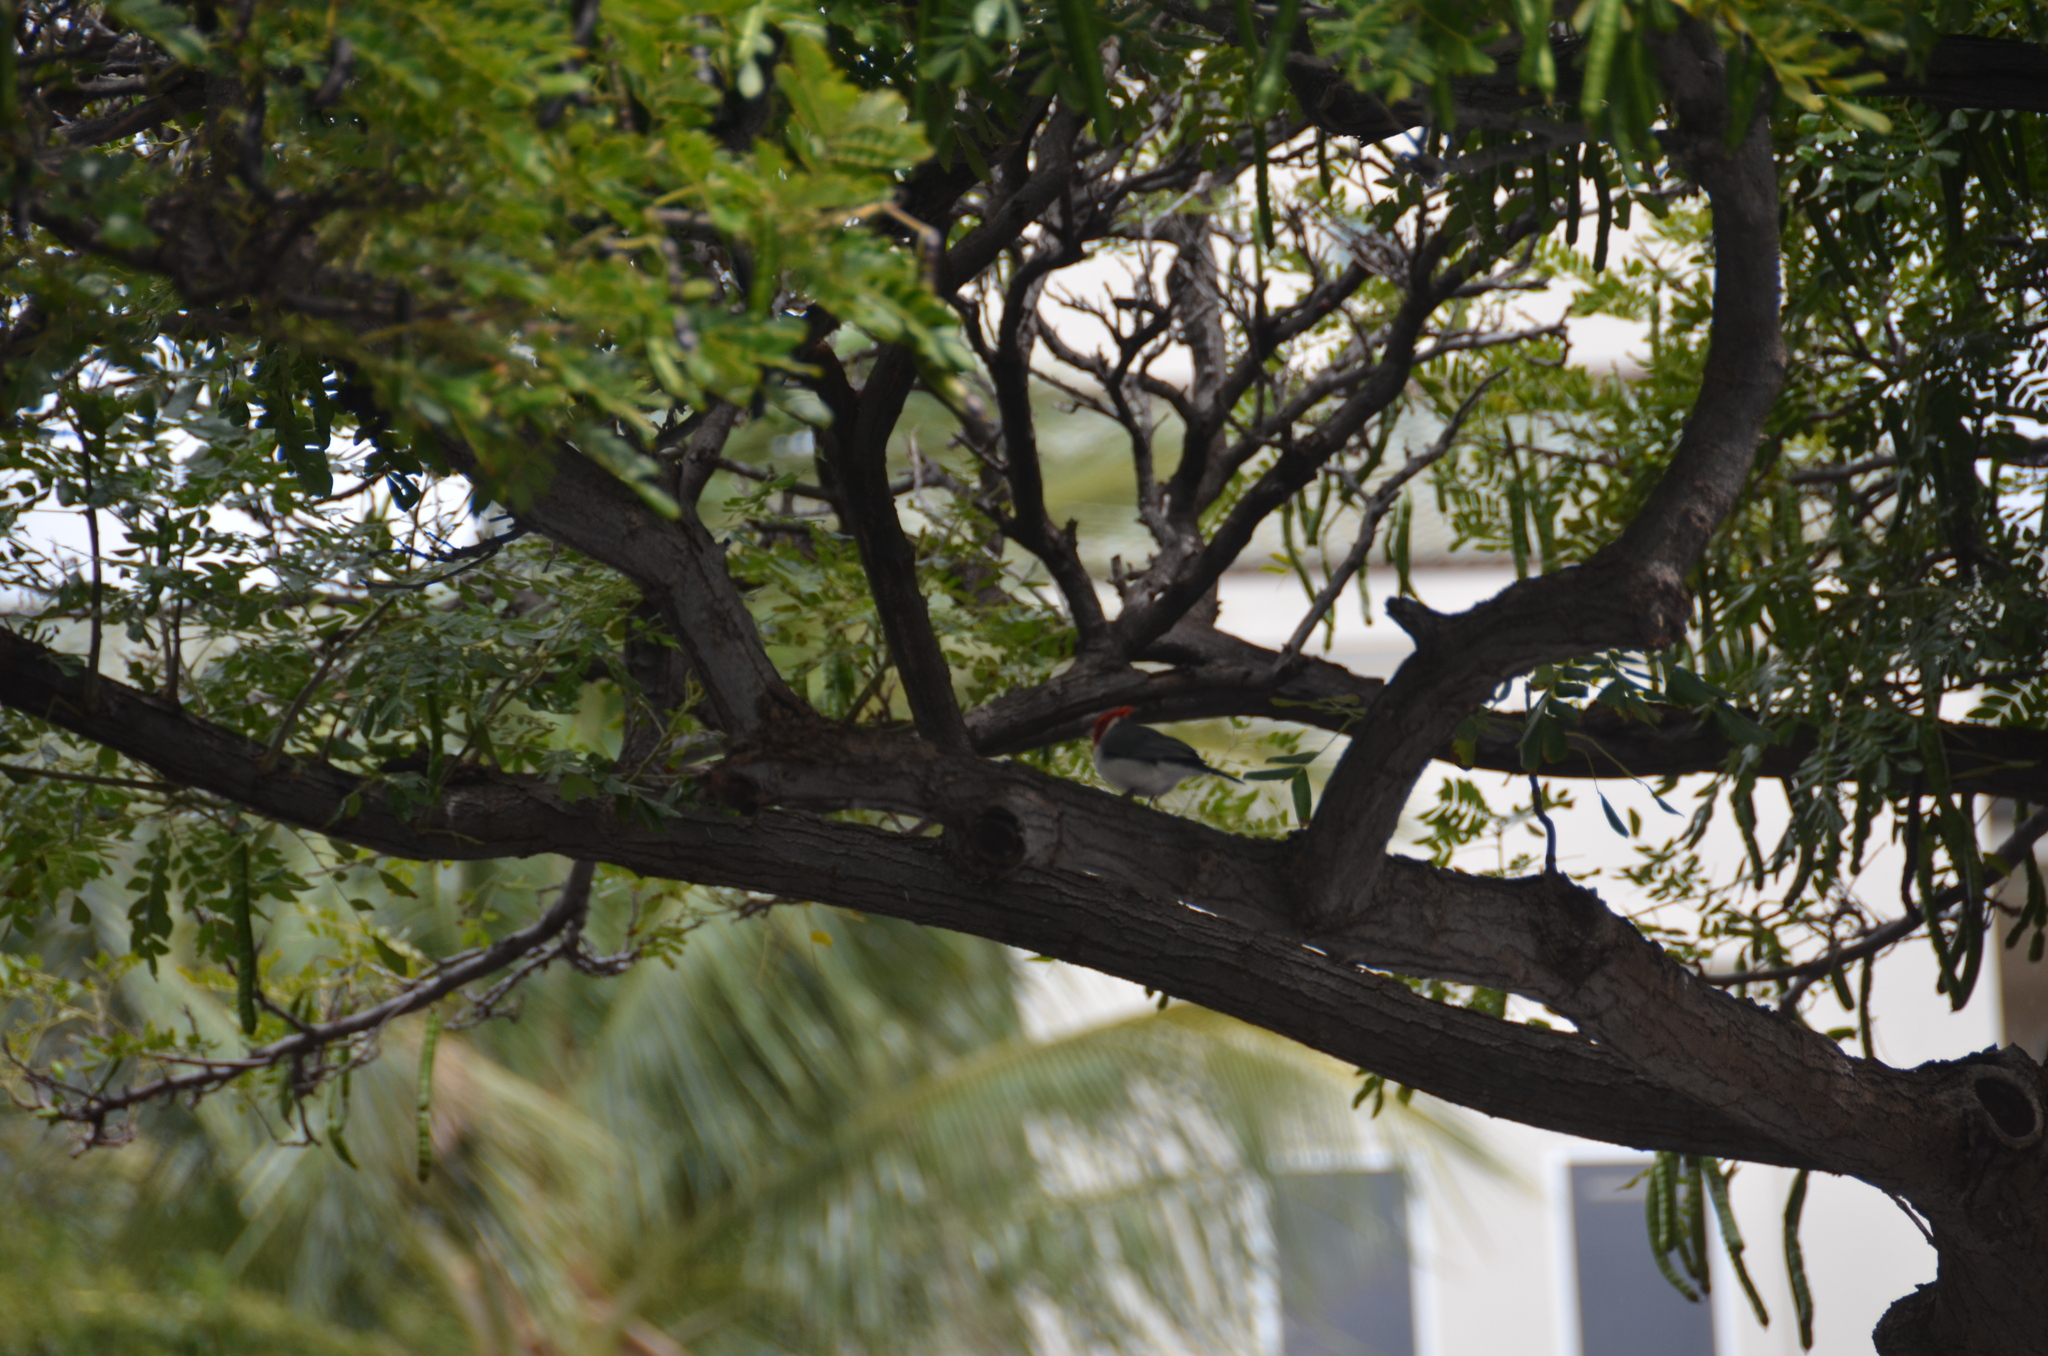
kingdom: Animalia
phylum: Chordata
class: Aves
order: Passeriformes
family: Thraupidae
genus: Paroaria
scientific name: Paroaria coronata
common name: Red-crested cardinal
